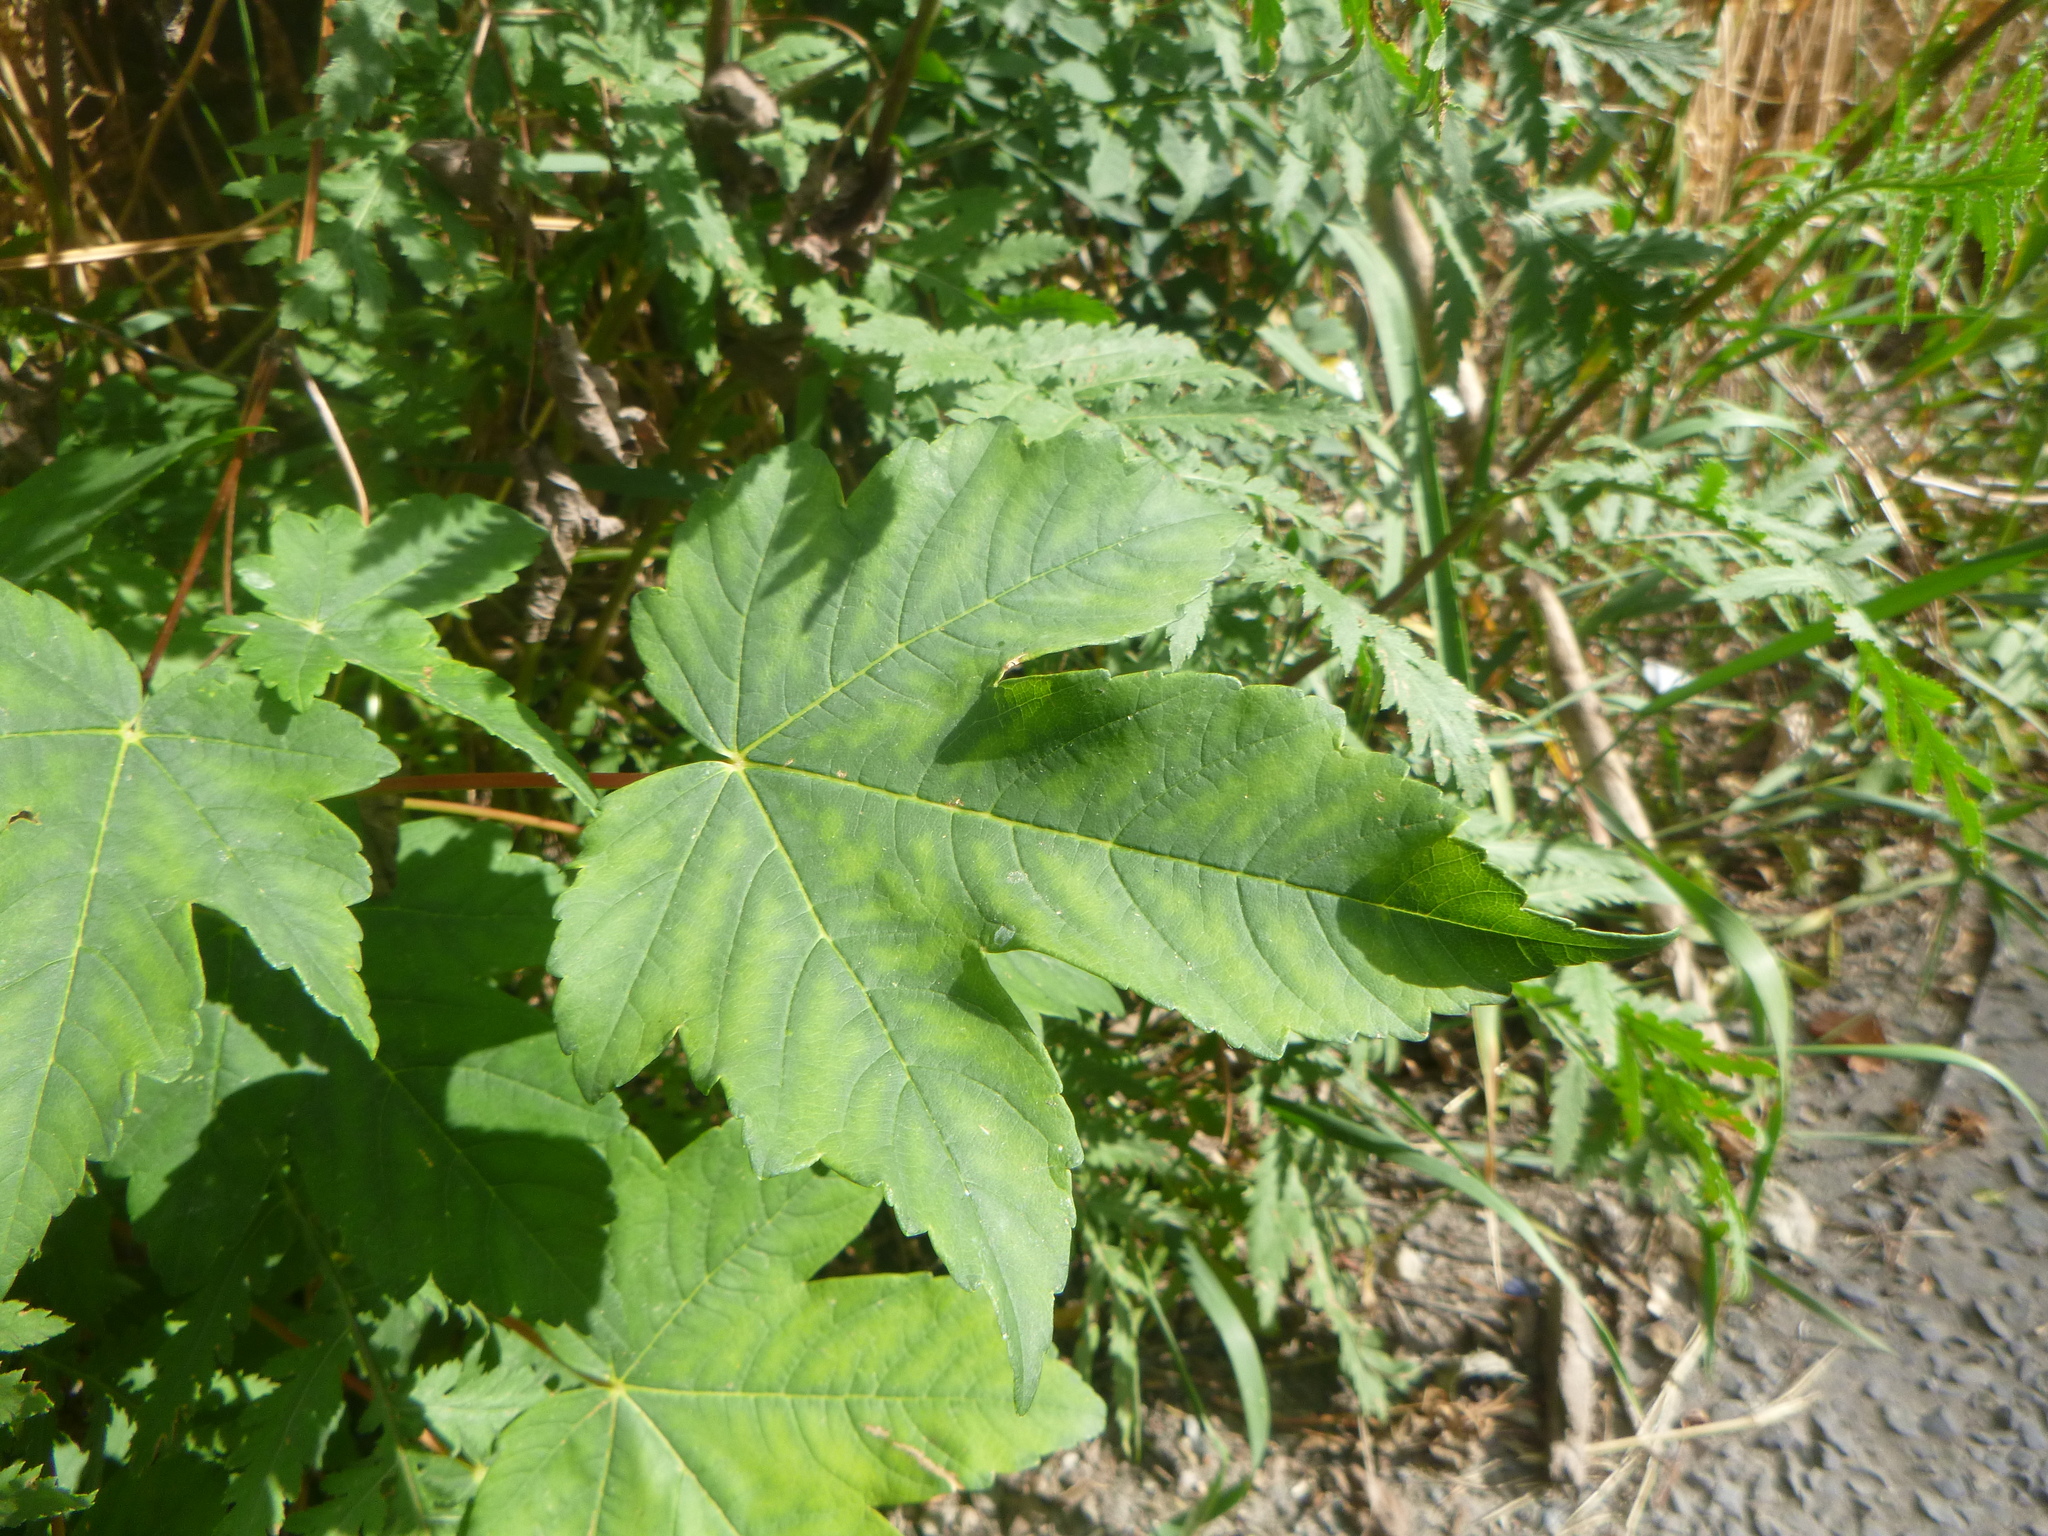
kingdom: Plantae
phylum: Tracheophyta
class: Magnoliopsida
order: Sapindales
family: Sapindaceae
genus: Acer
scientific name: Acer pseudoplatanus
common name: Sycamore
